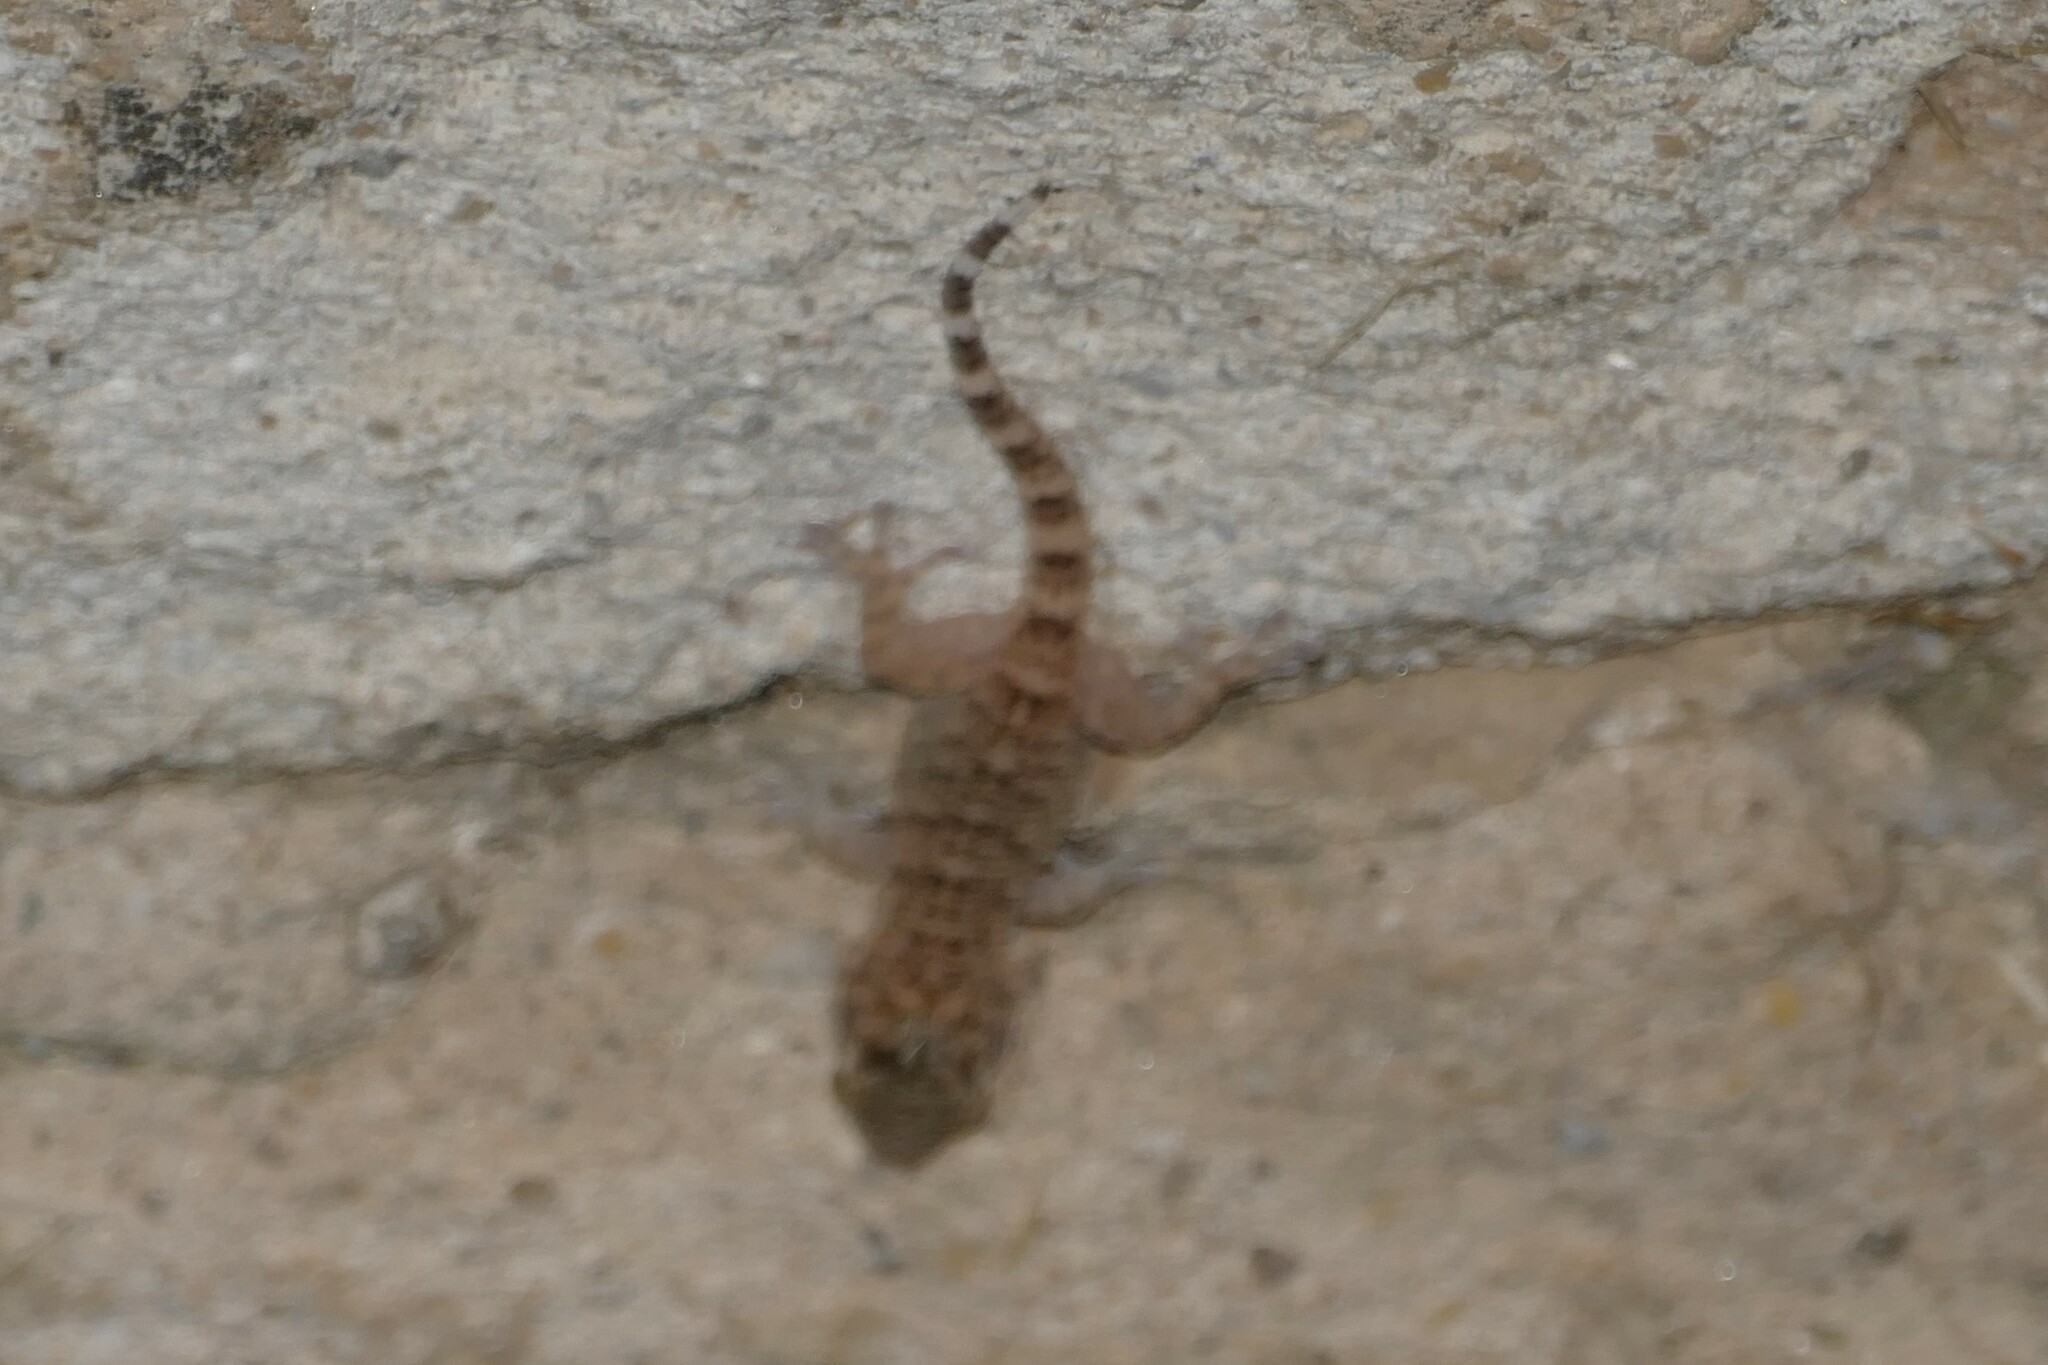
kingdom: Animalia
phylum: Chordata
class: Squamata
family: Phyllodactylidae
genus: Tarentola
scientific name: Tarentola mauritanica
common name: Moorish gecko
